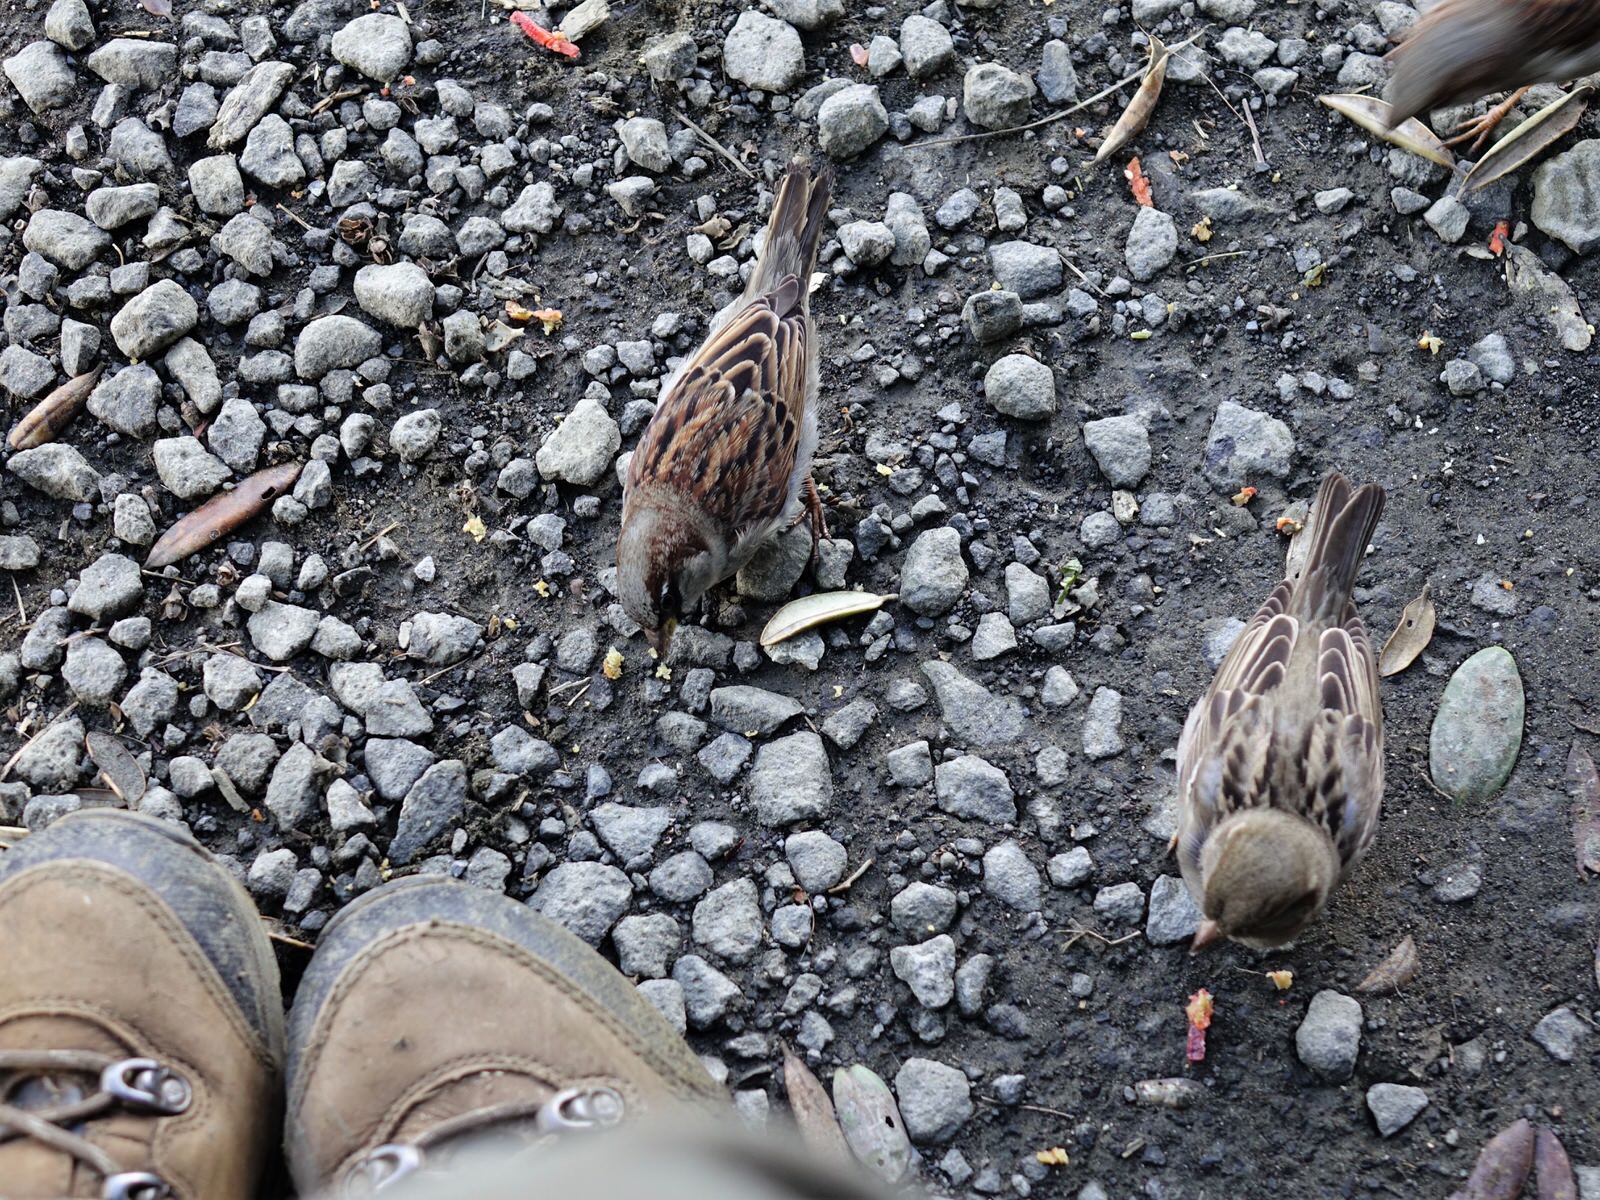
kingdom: Animalia
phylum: Chordata
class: Aves
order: Passeriformes
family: Passeridae
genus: Passer
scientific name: Passer domesticus
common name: House sparrow
